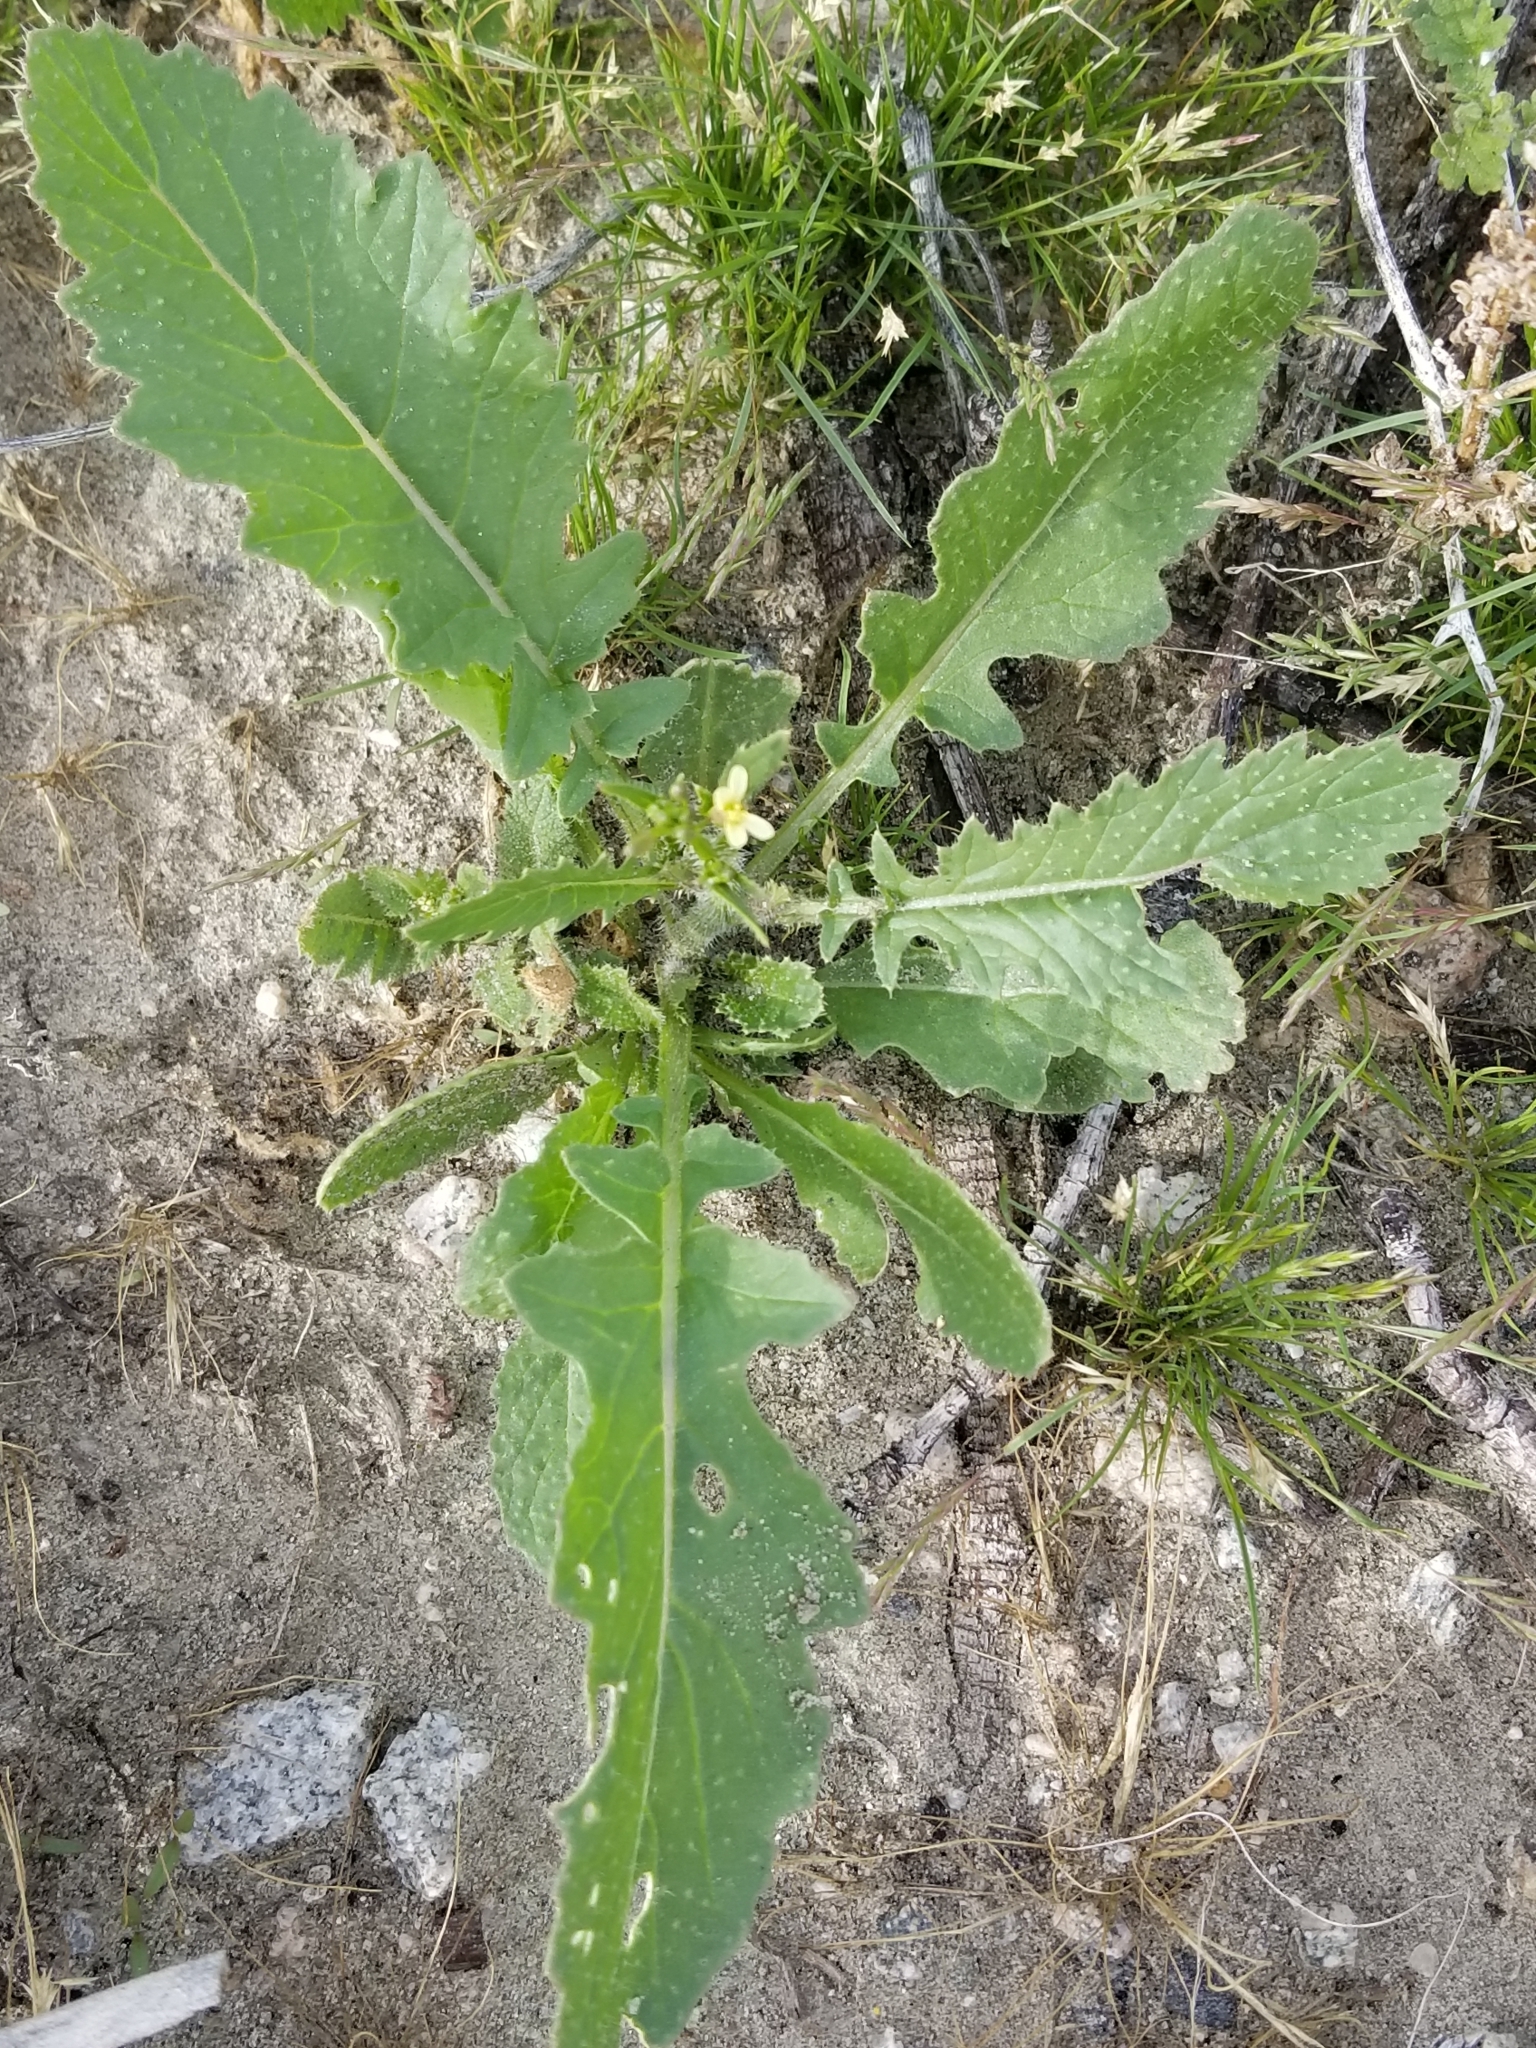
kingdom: Plantae
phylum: Tracheophyta
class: Magnoliopsida
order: Brassicales
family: Brassicaceae
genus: Brassica
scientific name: Brassica tournefortii
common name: Pale cabbage
